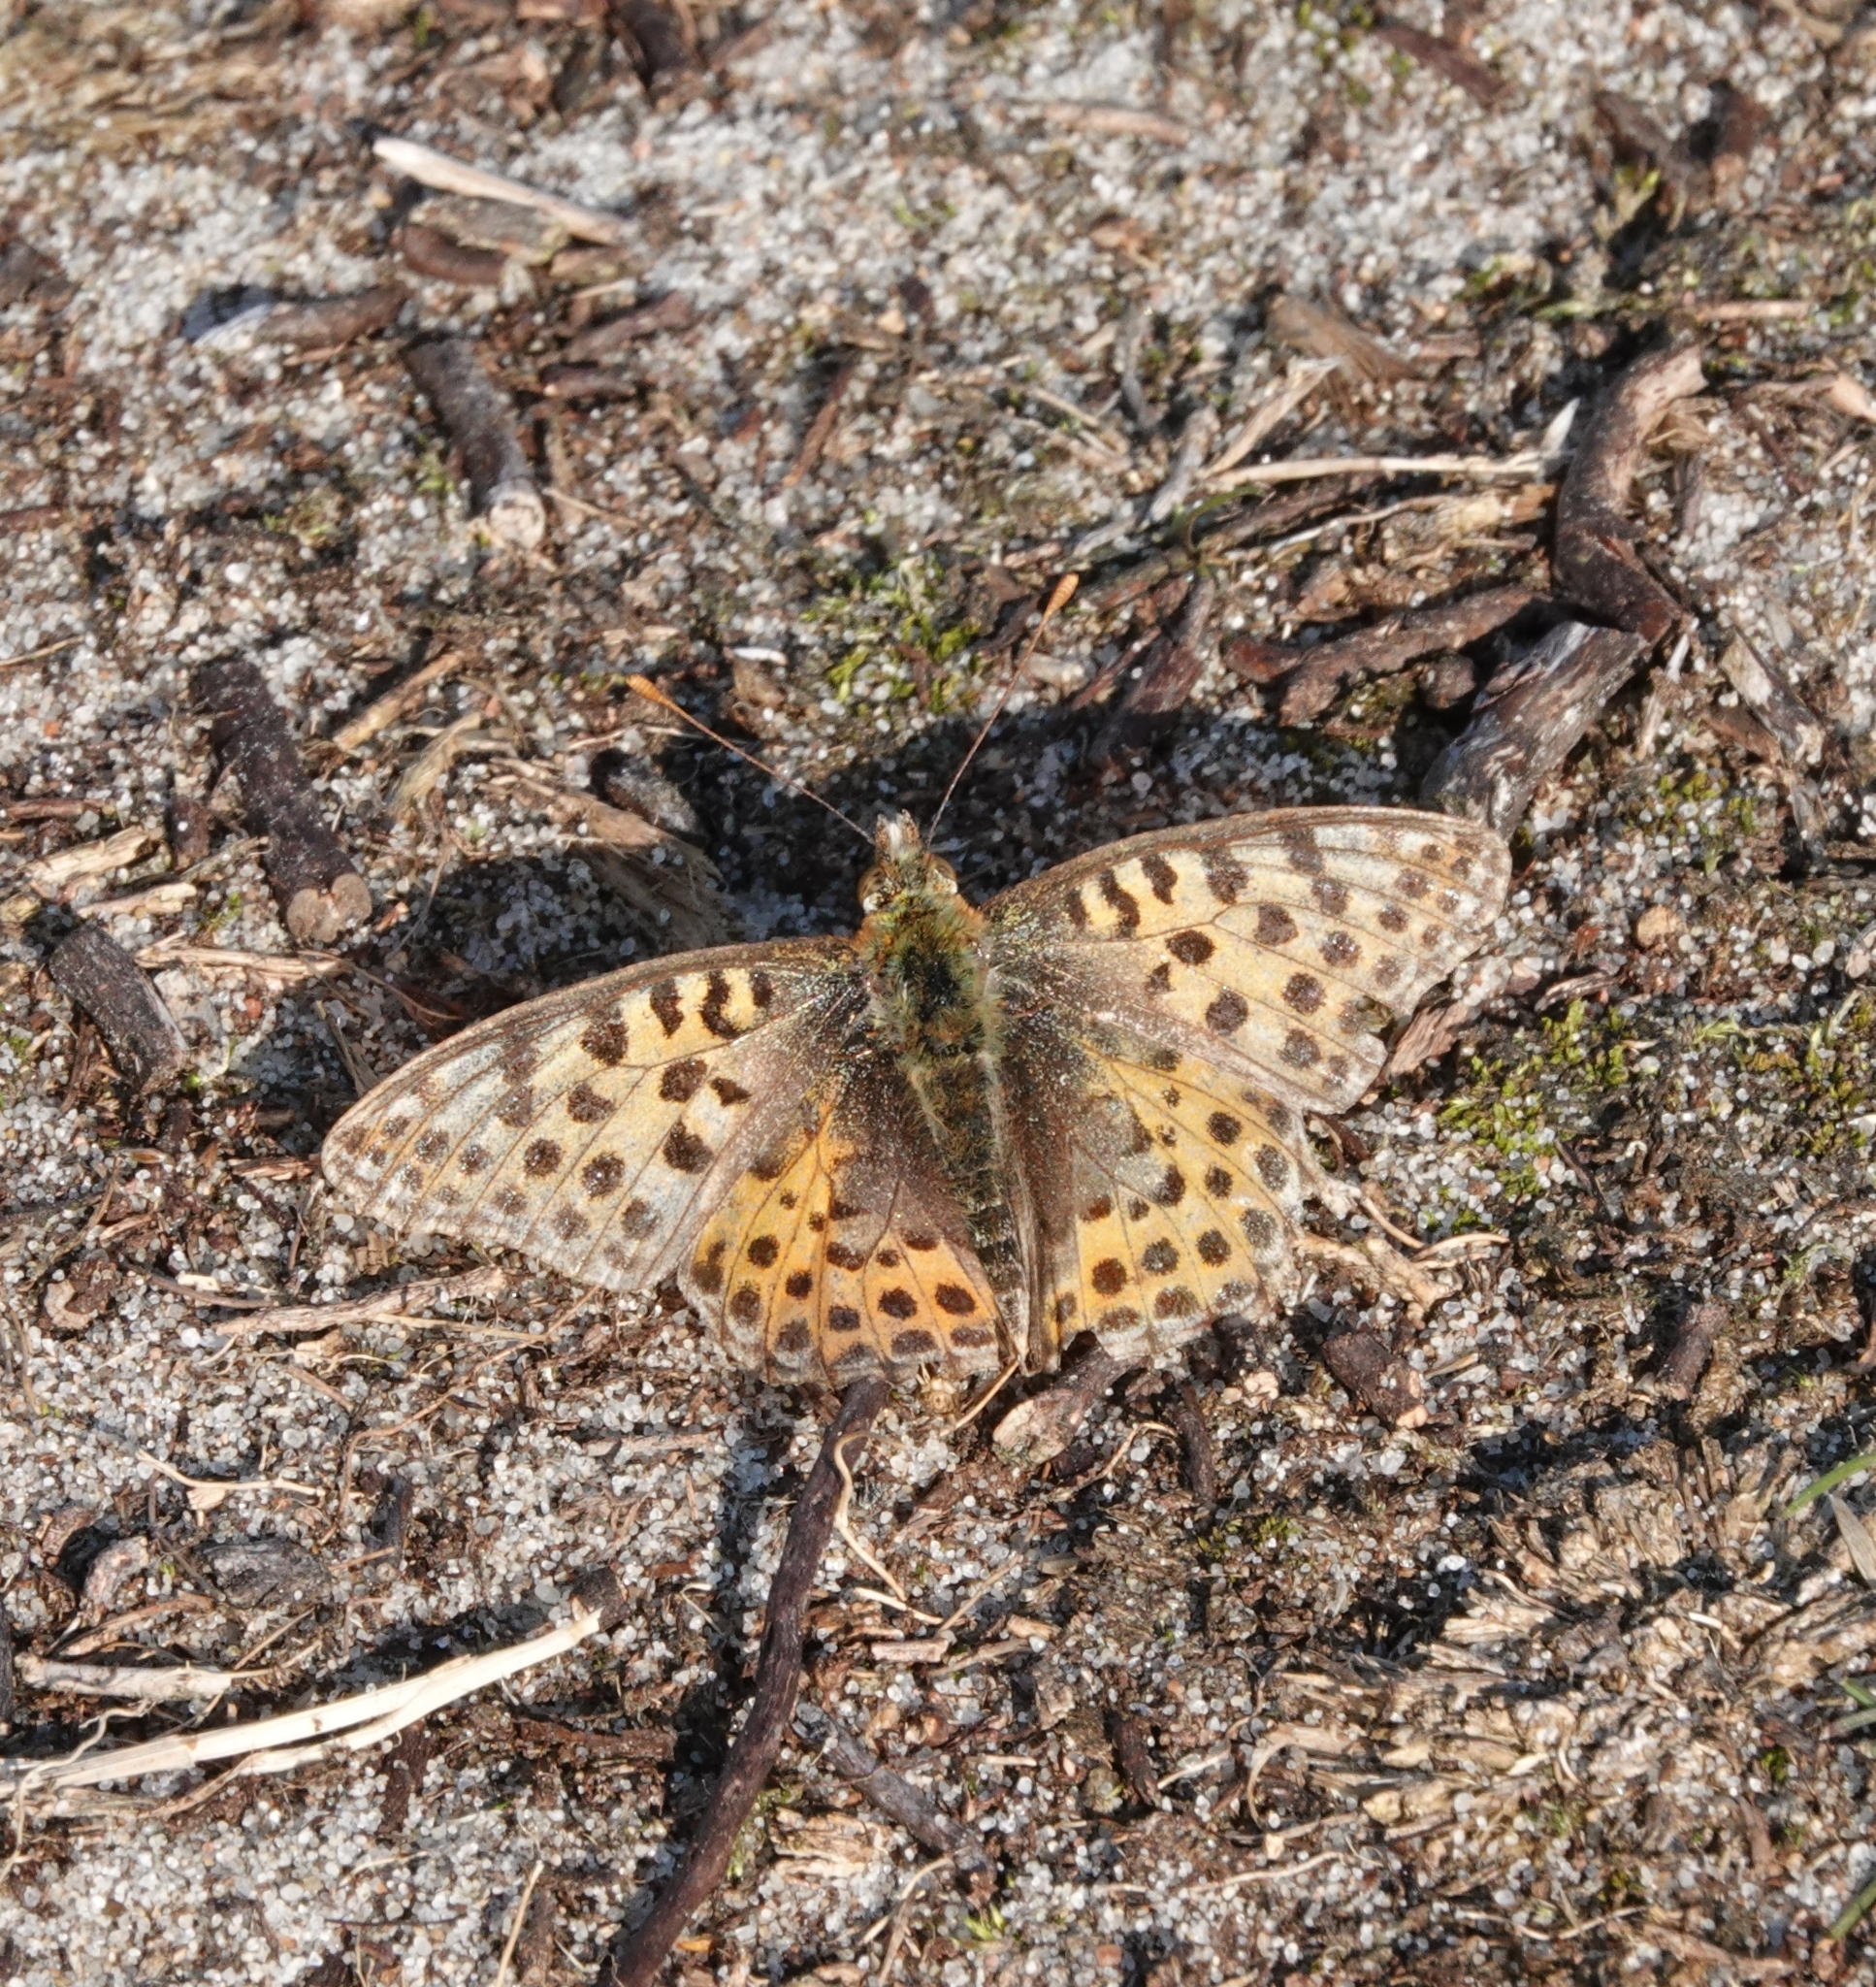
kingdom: Animalia
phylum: Arthropoda
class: Insecta
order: Lepidoptera
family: Nymphalidae
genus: Issoria
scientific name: Issoria lathonia
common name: Queen of spain fritillary
